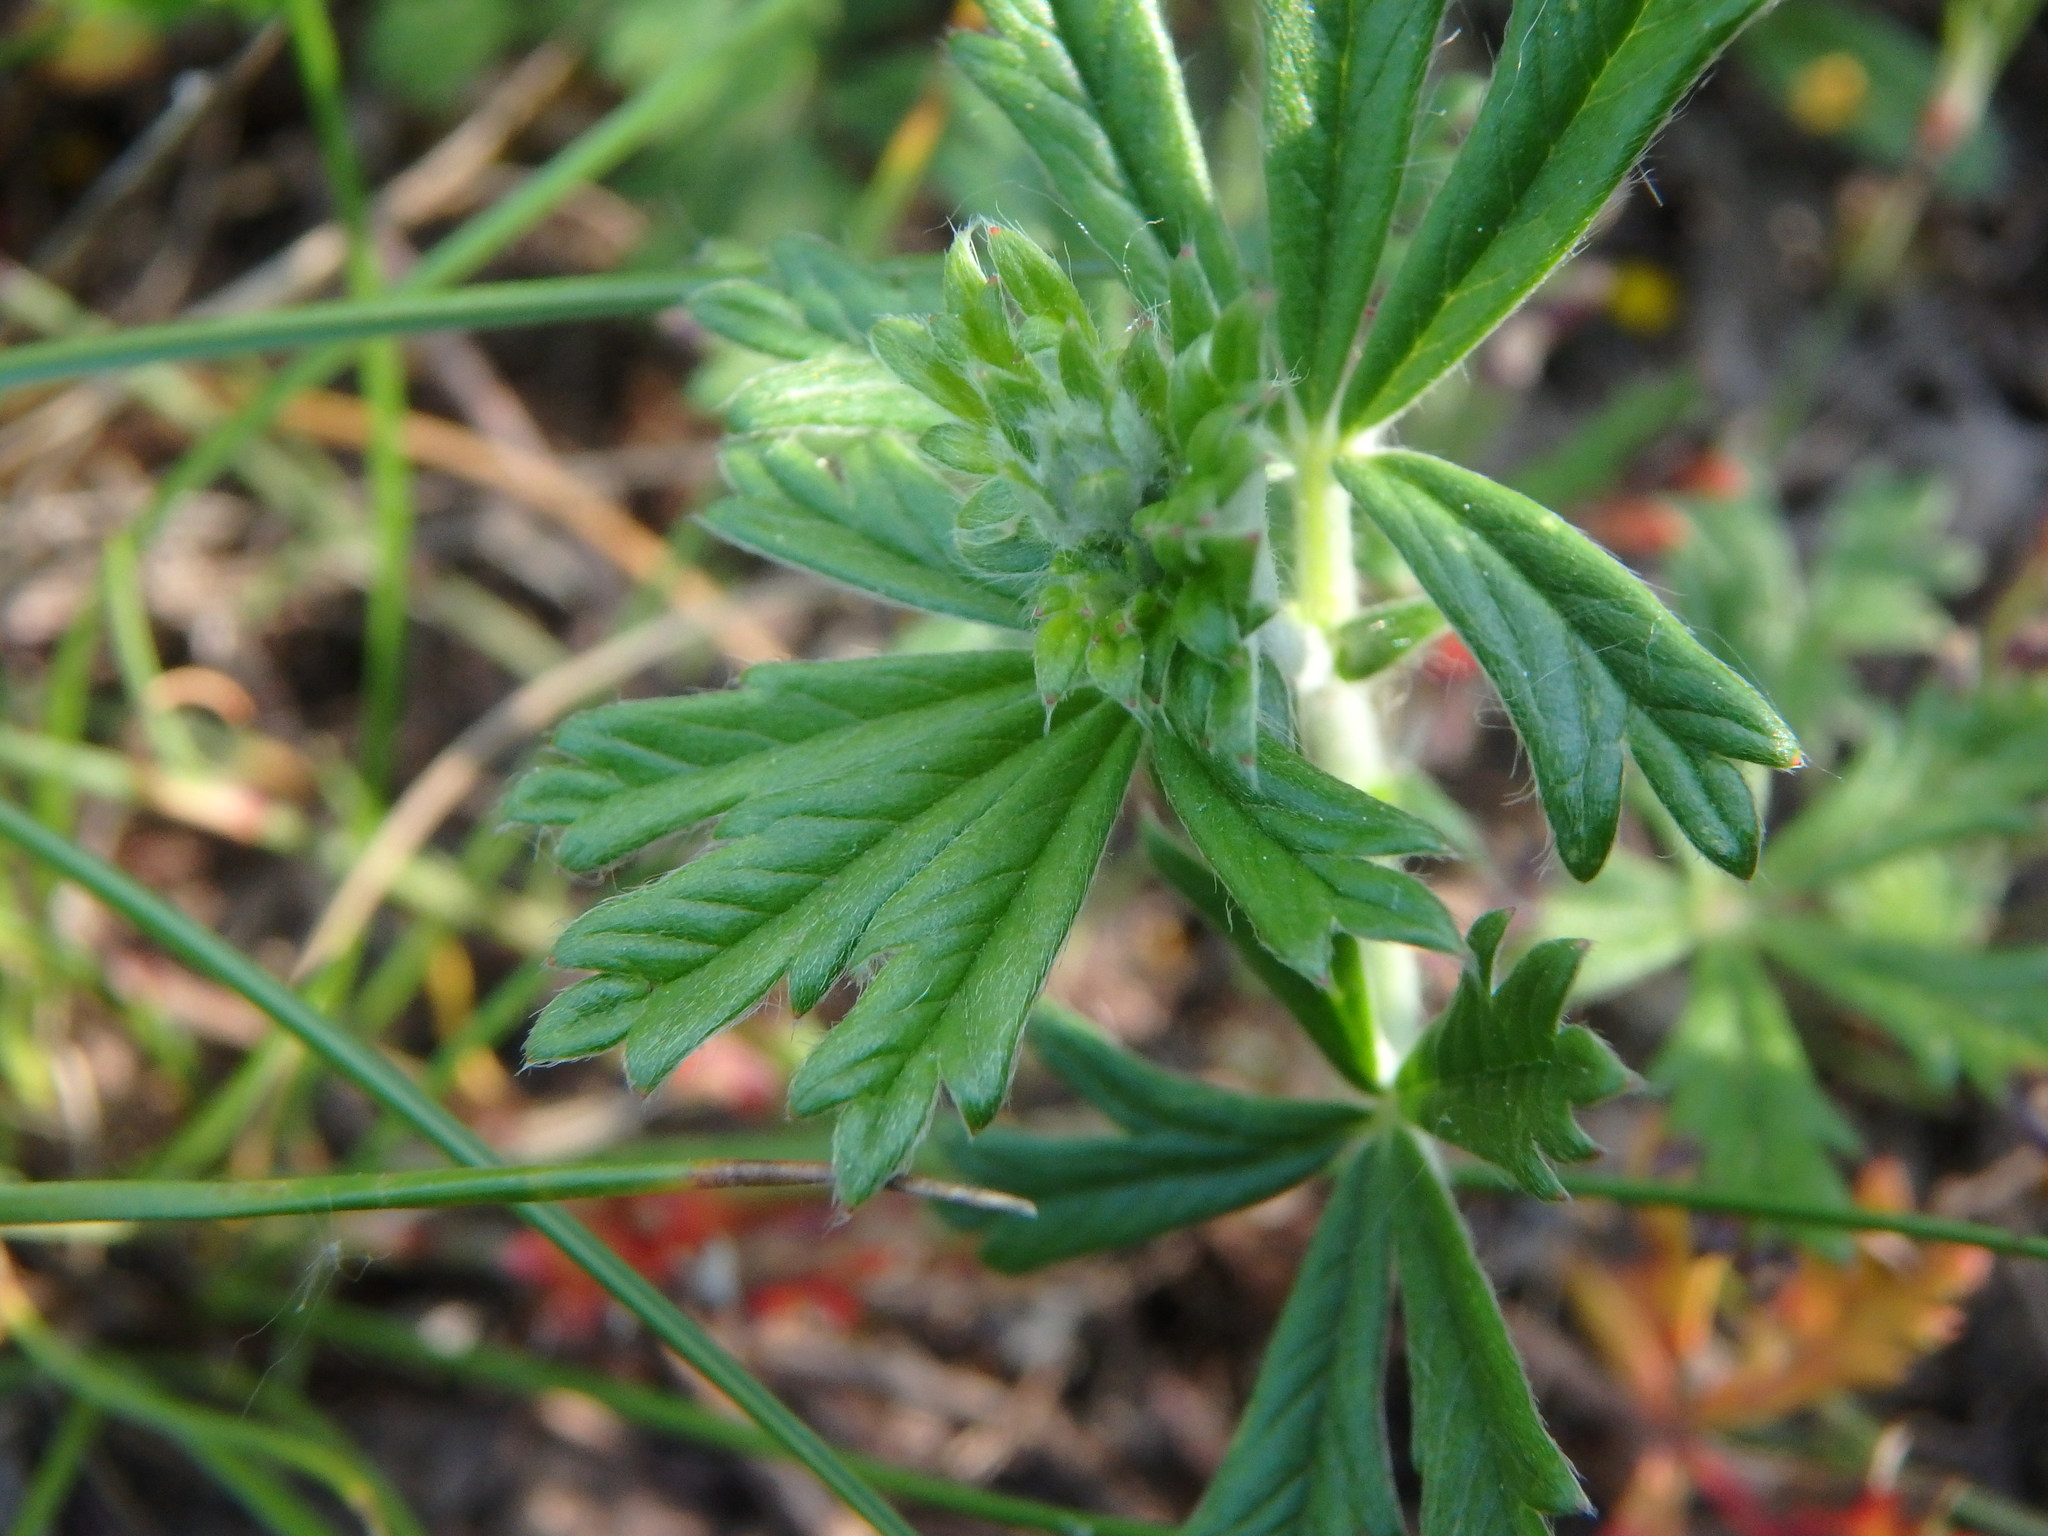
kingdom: Plantae
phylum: Tracheophyta
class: Magnoliopsida
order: Rosales
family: Rosaceae
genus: Potentilla
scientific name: Potentilla argentea
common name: Hoary cinquefoil
